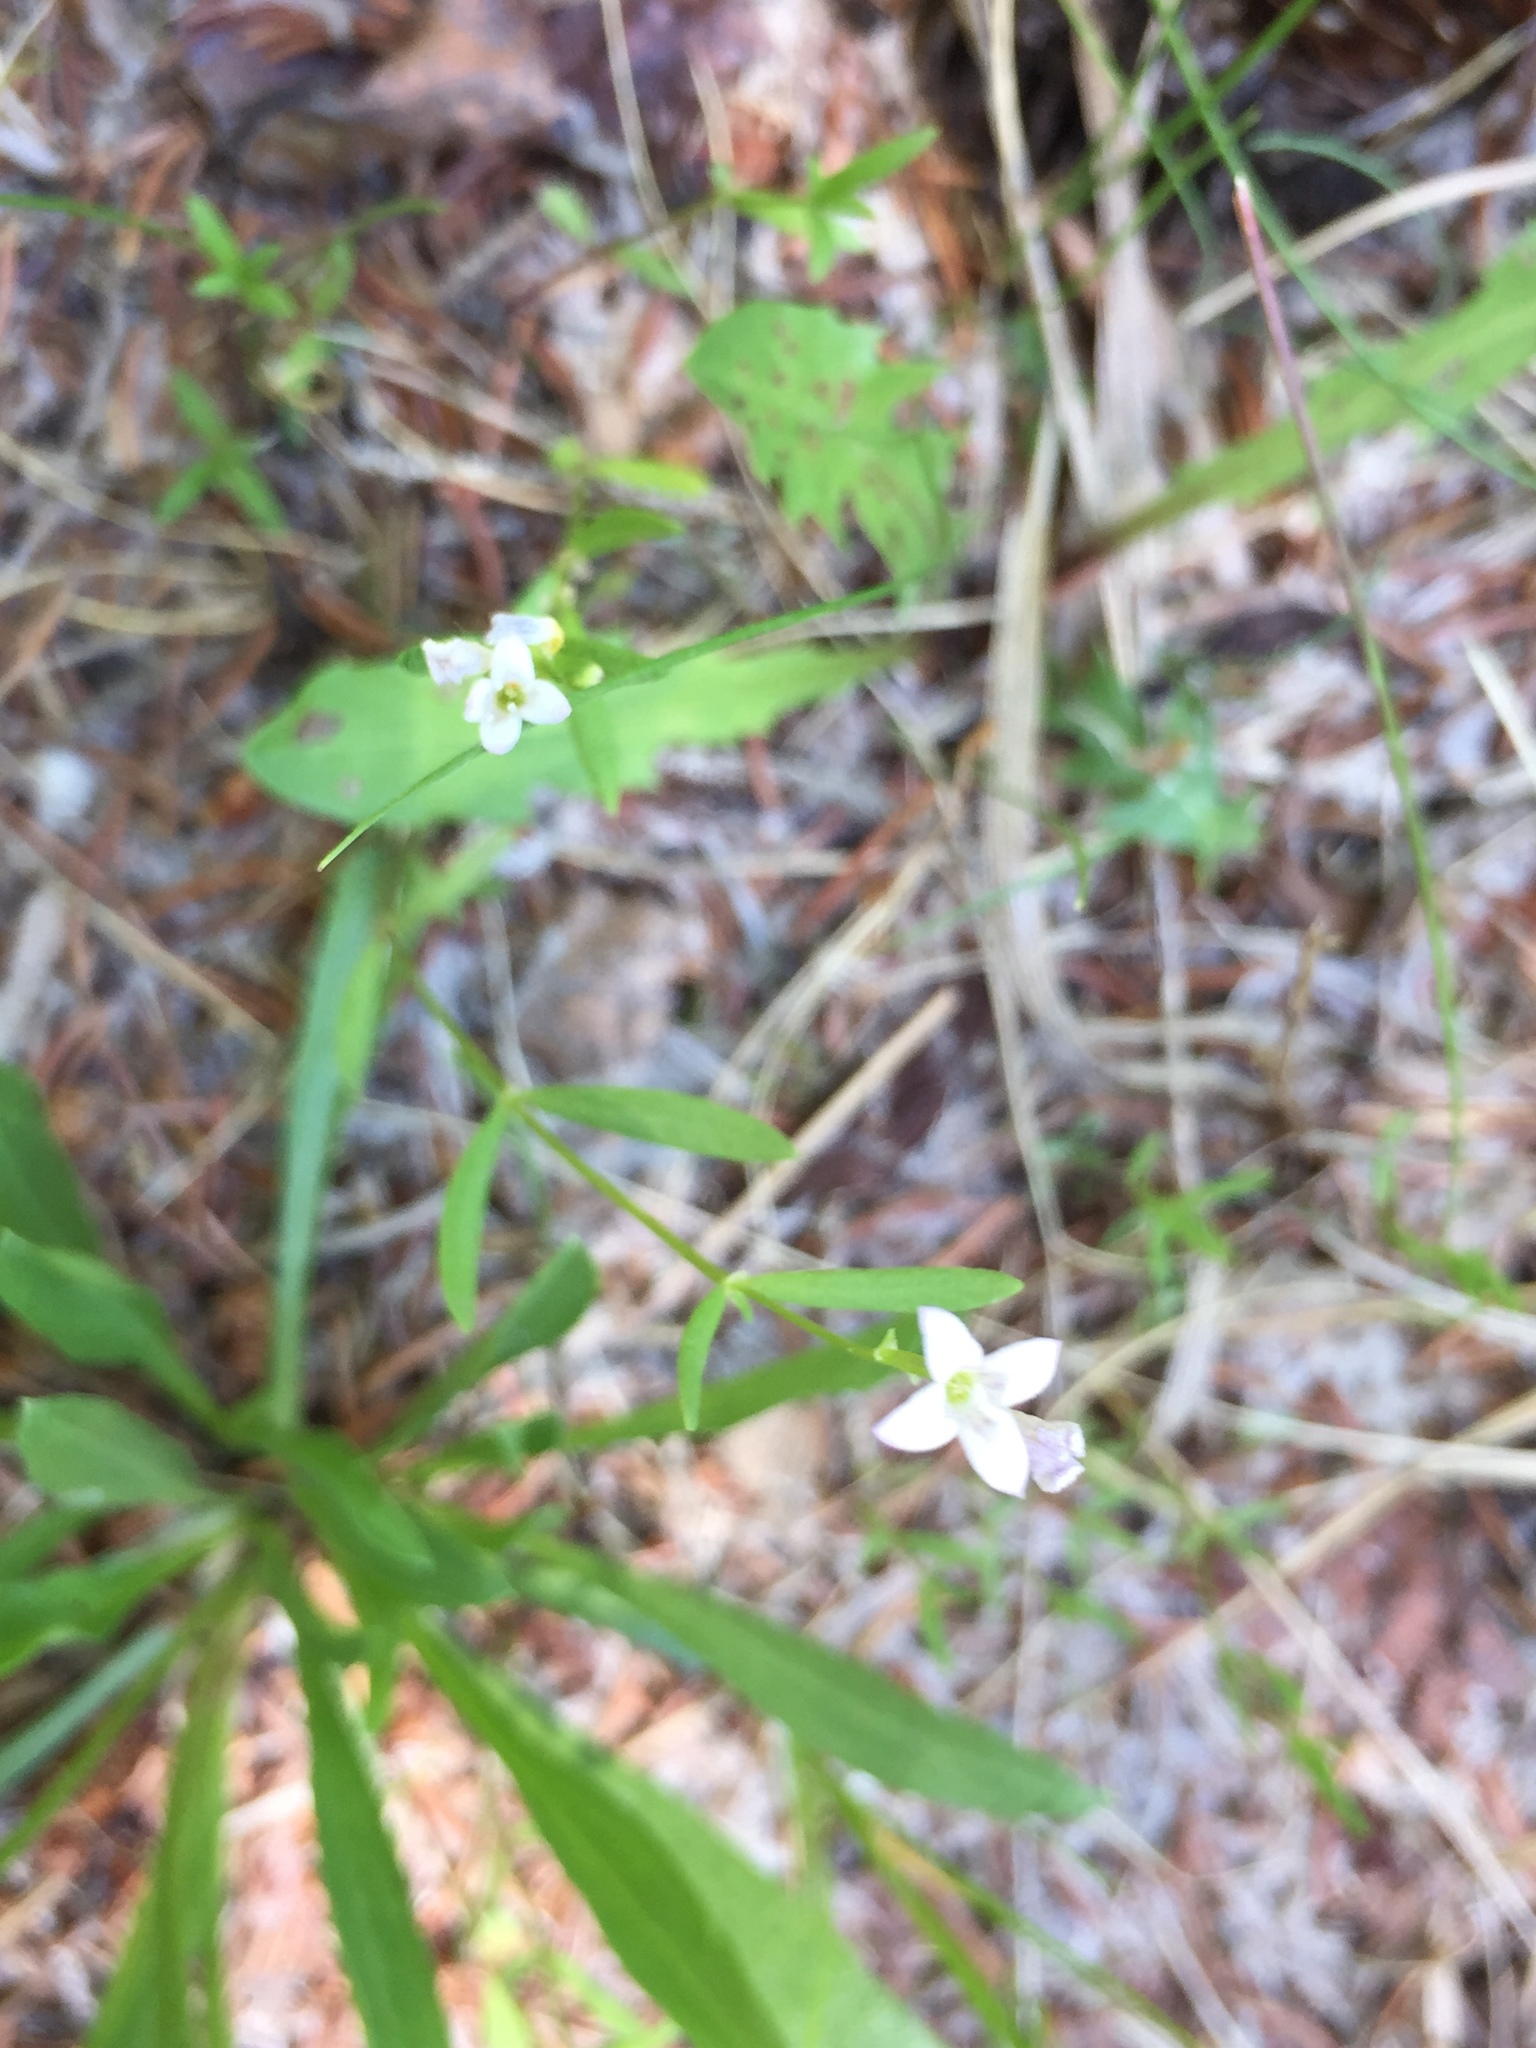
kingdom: Plantae
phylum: Tracheophyta
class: Magnoliopsida
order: Gentianales
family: Rubiaceae
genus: Houstonia
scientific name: Houstonia longifolia
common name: Long-leaved bluets
